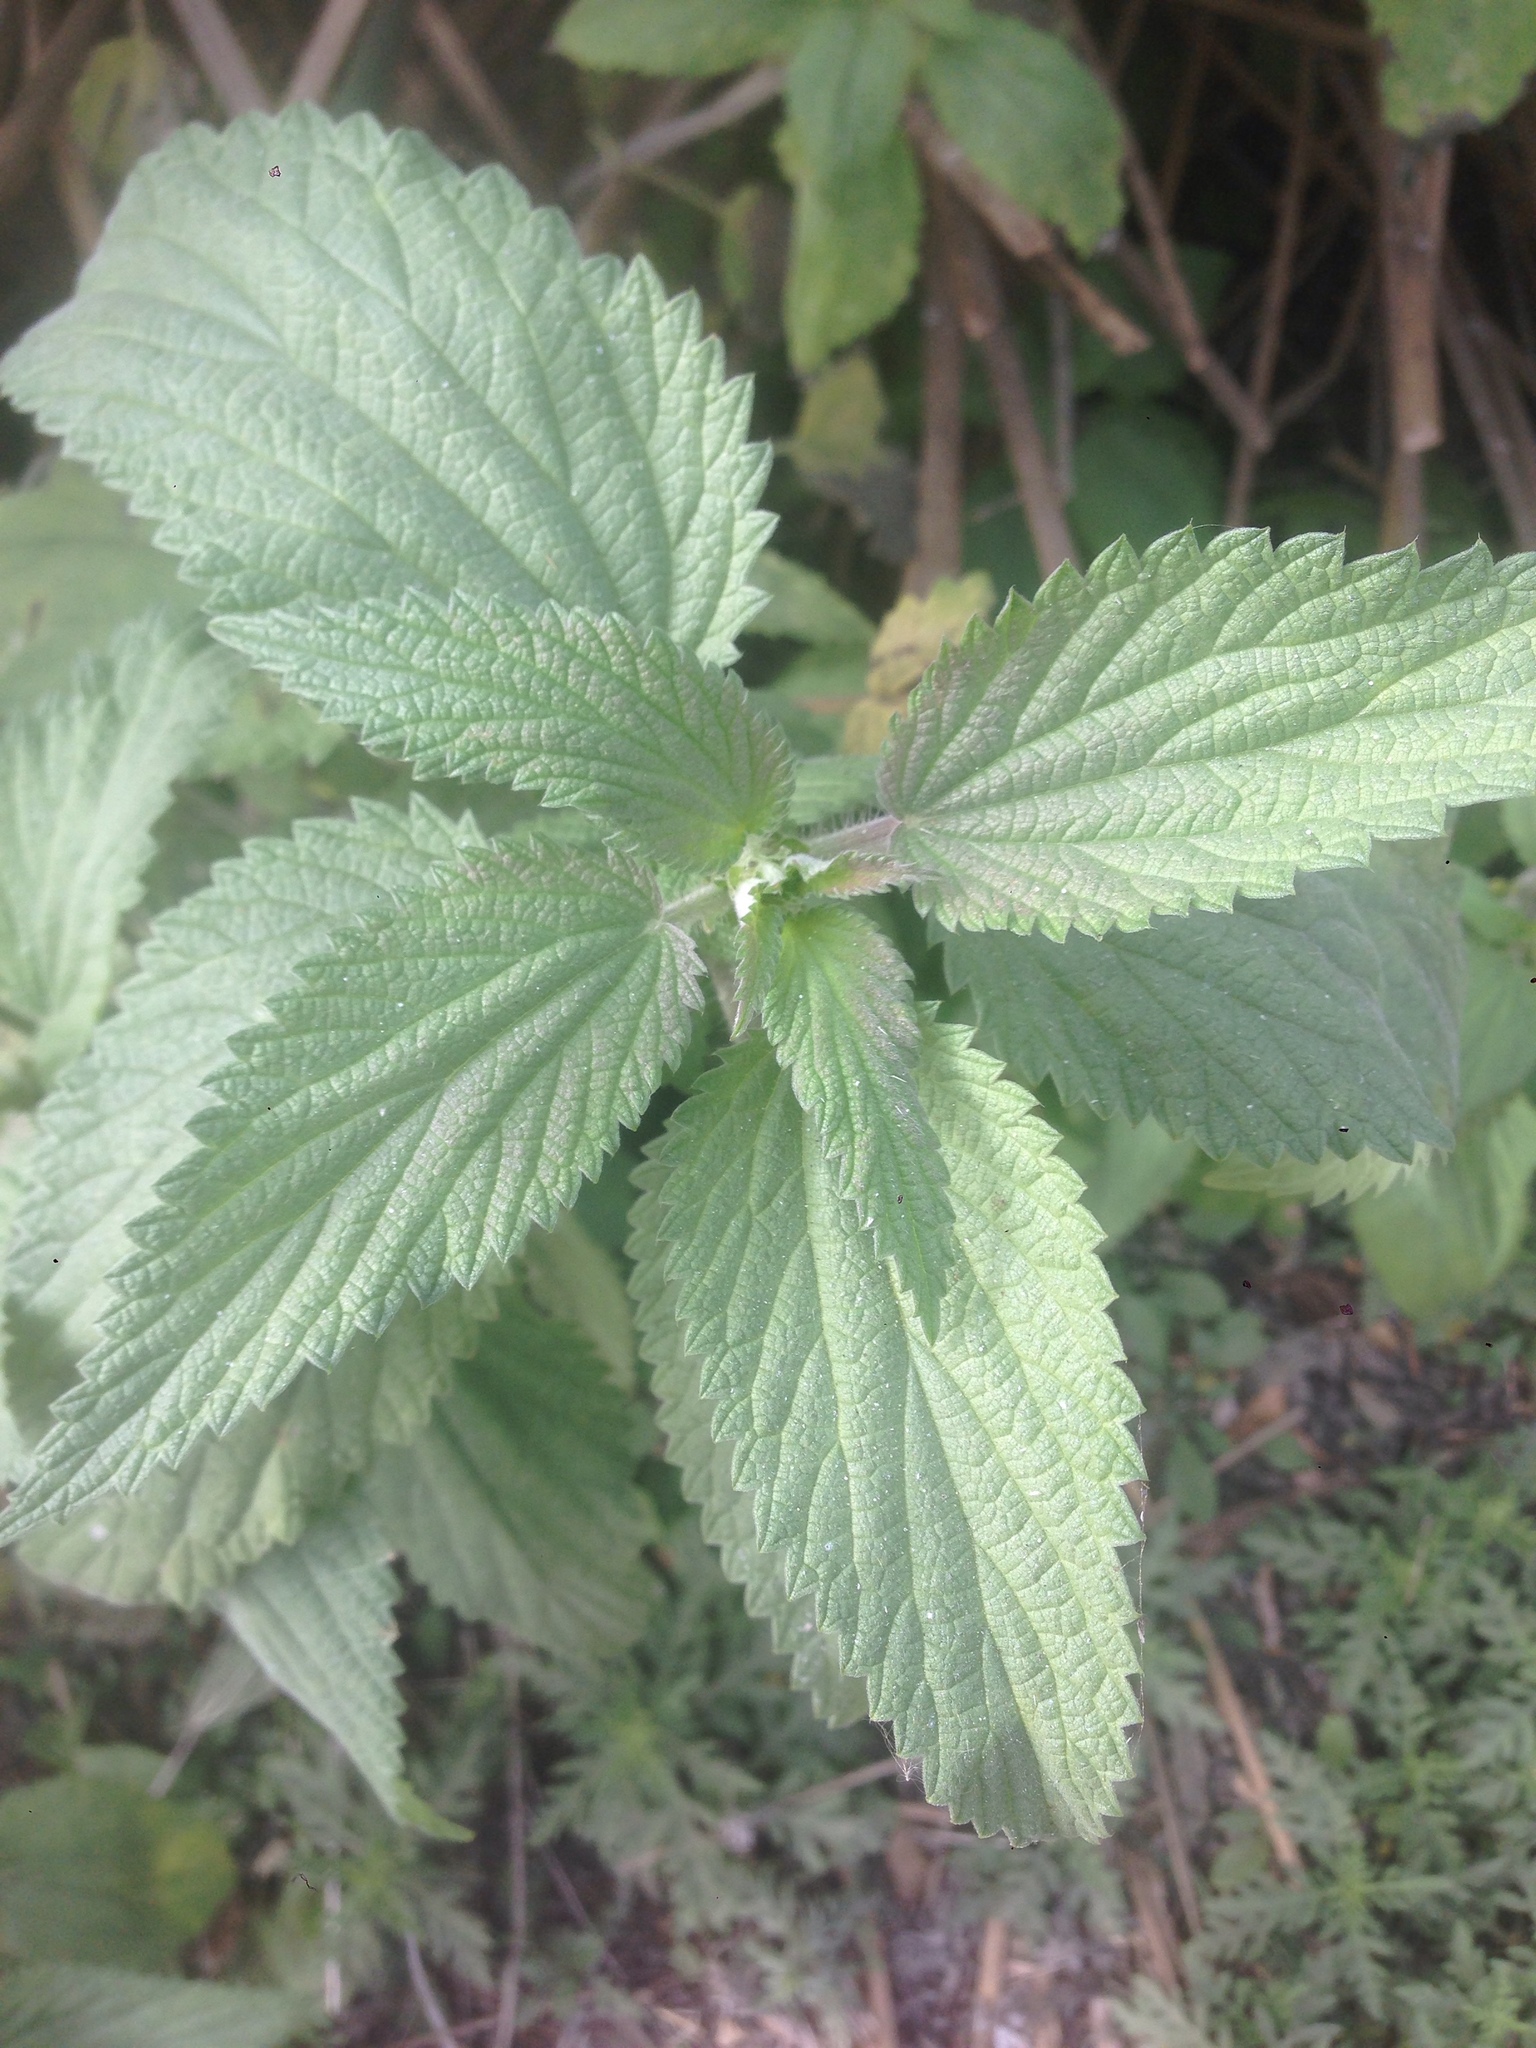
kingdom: Plantae
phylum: Tracheophyta
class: Magnoliopsida
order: Rosales
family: Urticaceae
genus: Urtica
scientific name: Urtica dioica
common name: Common nettle
